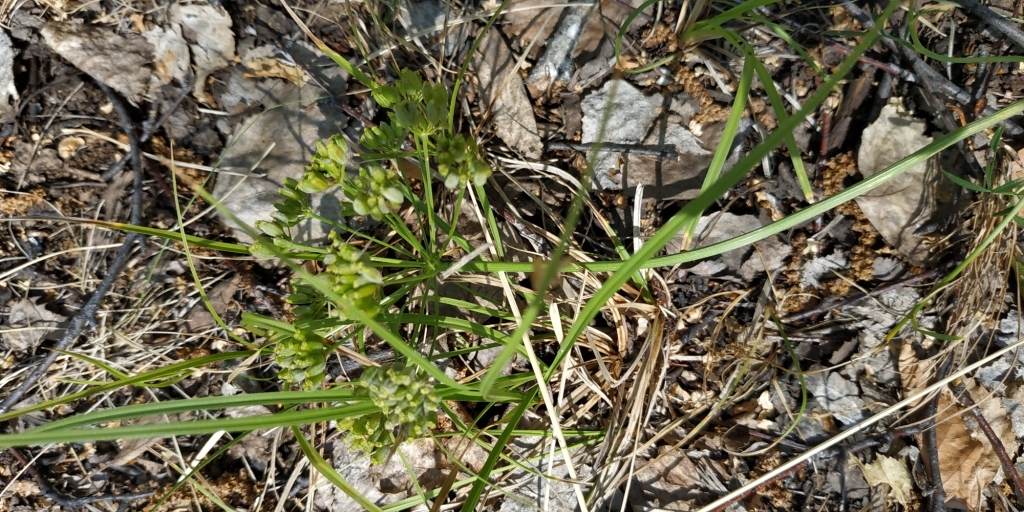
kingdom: Plantae
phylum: Tracheophyta
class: Magnoliopsida
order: Apiales
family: Apiaceae
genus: Cenolophium
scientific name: Cenolophium fischeri
